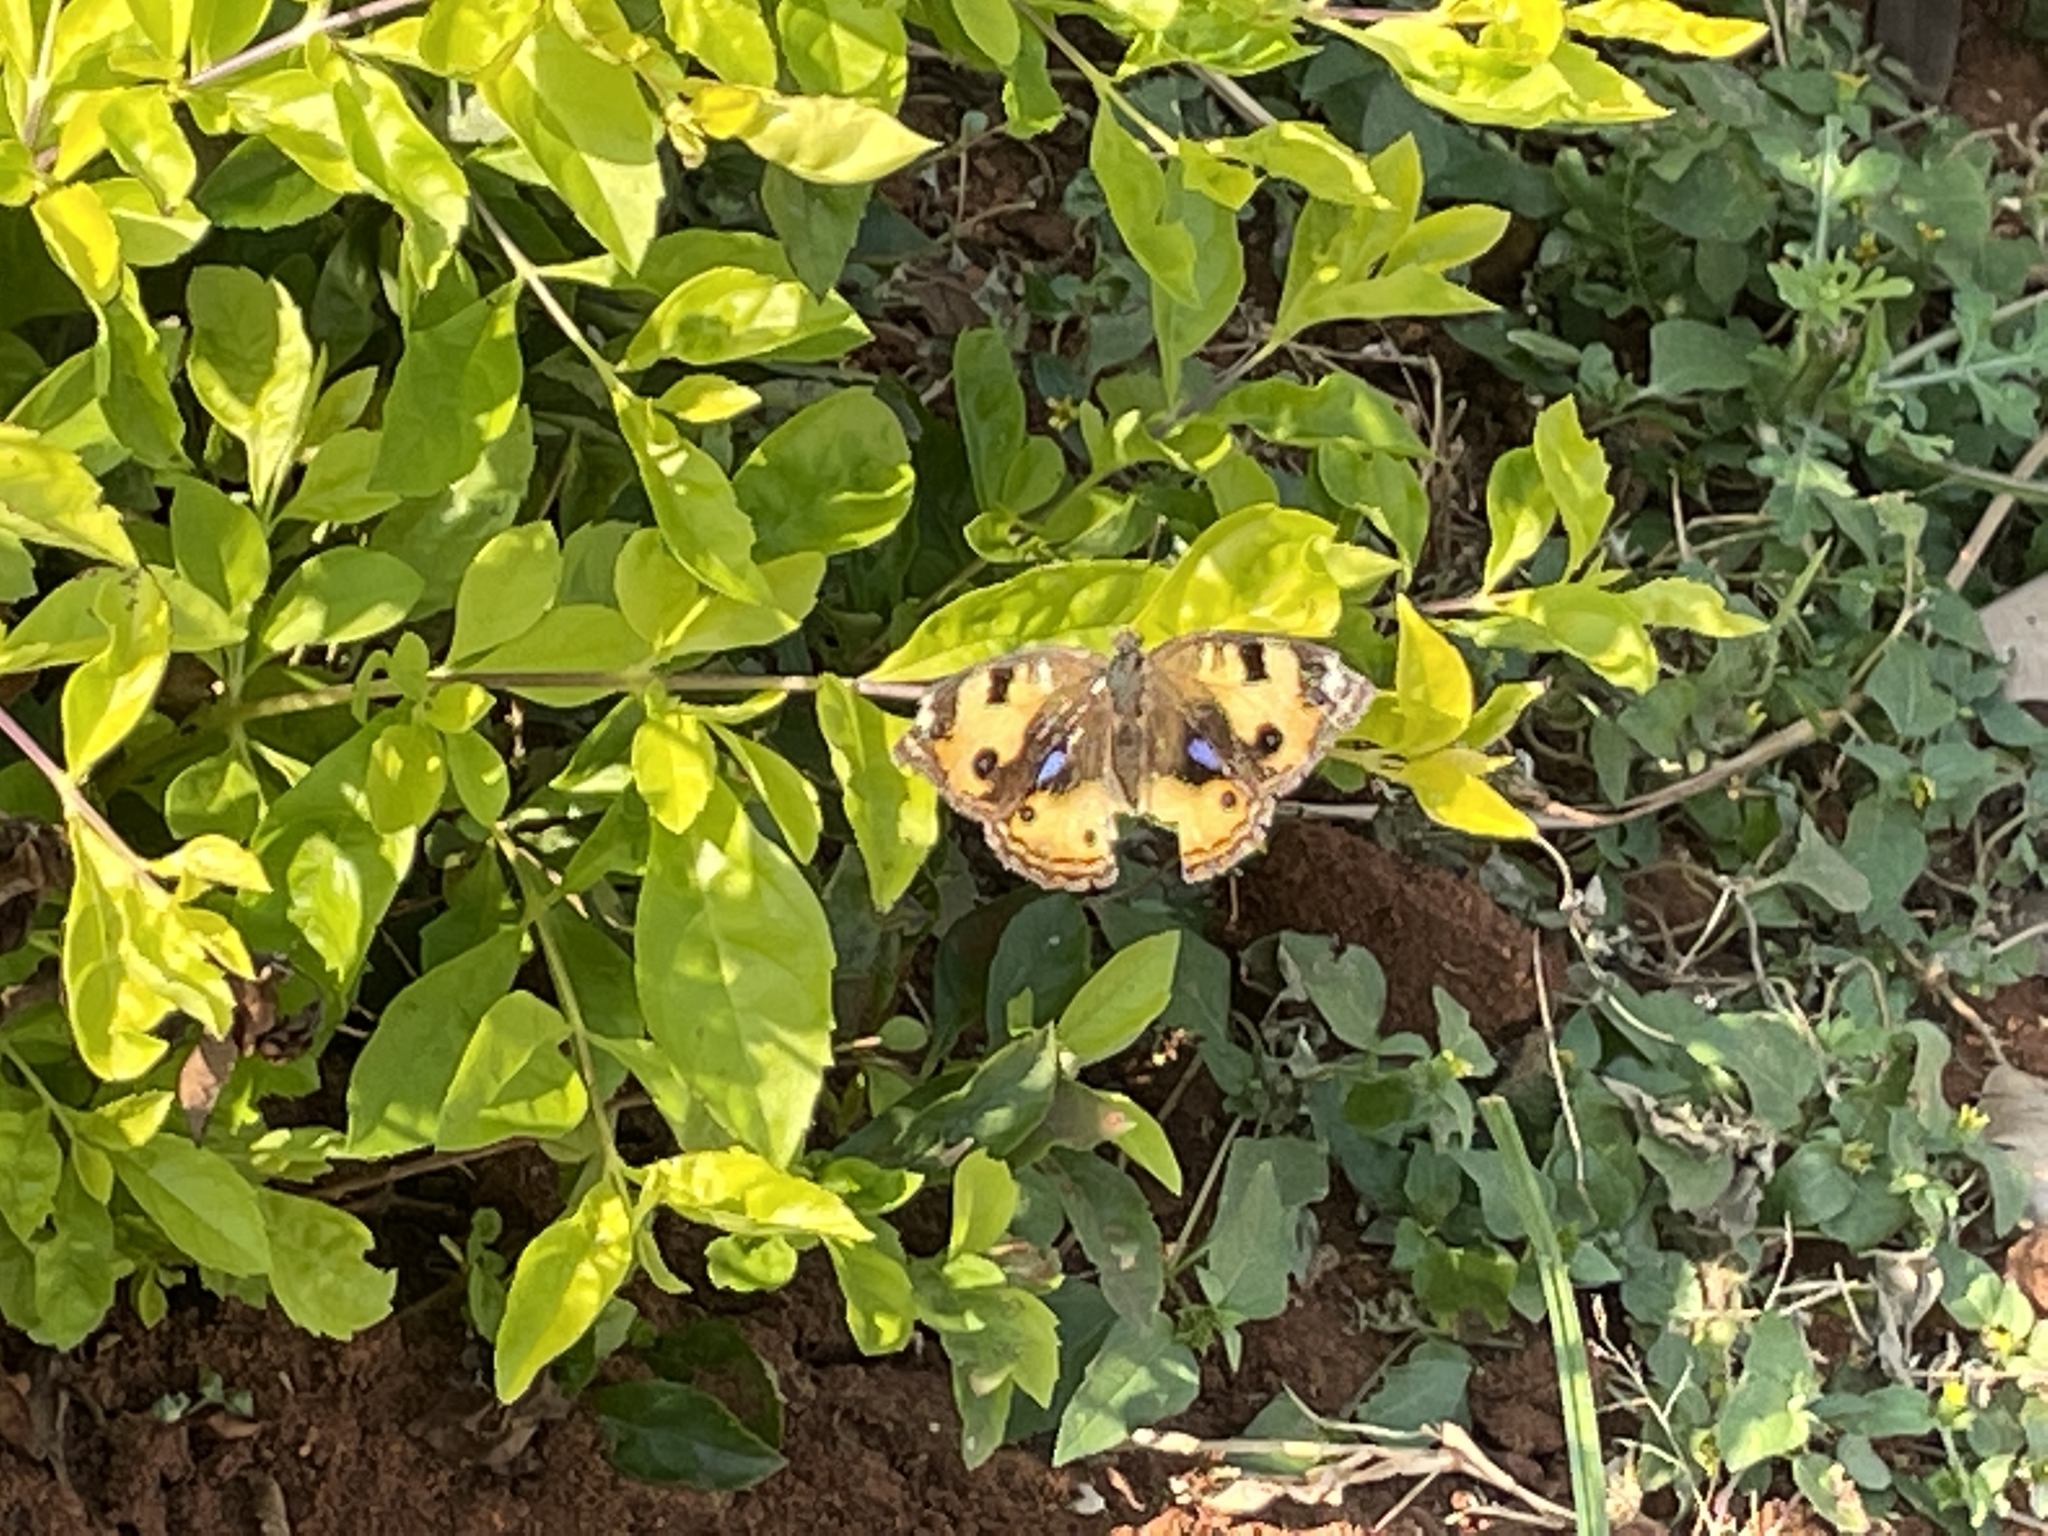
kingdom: Animalia
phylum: Arthropoda
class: Insecta
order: Lepidoptera
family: Nymphalidae
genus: Junonia
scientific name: Junonia hierta
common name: Yellow pansy
